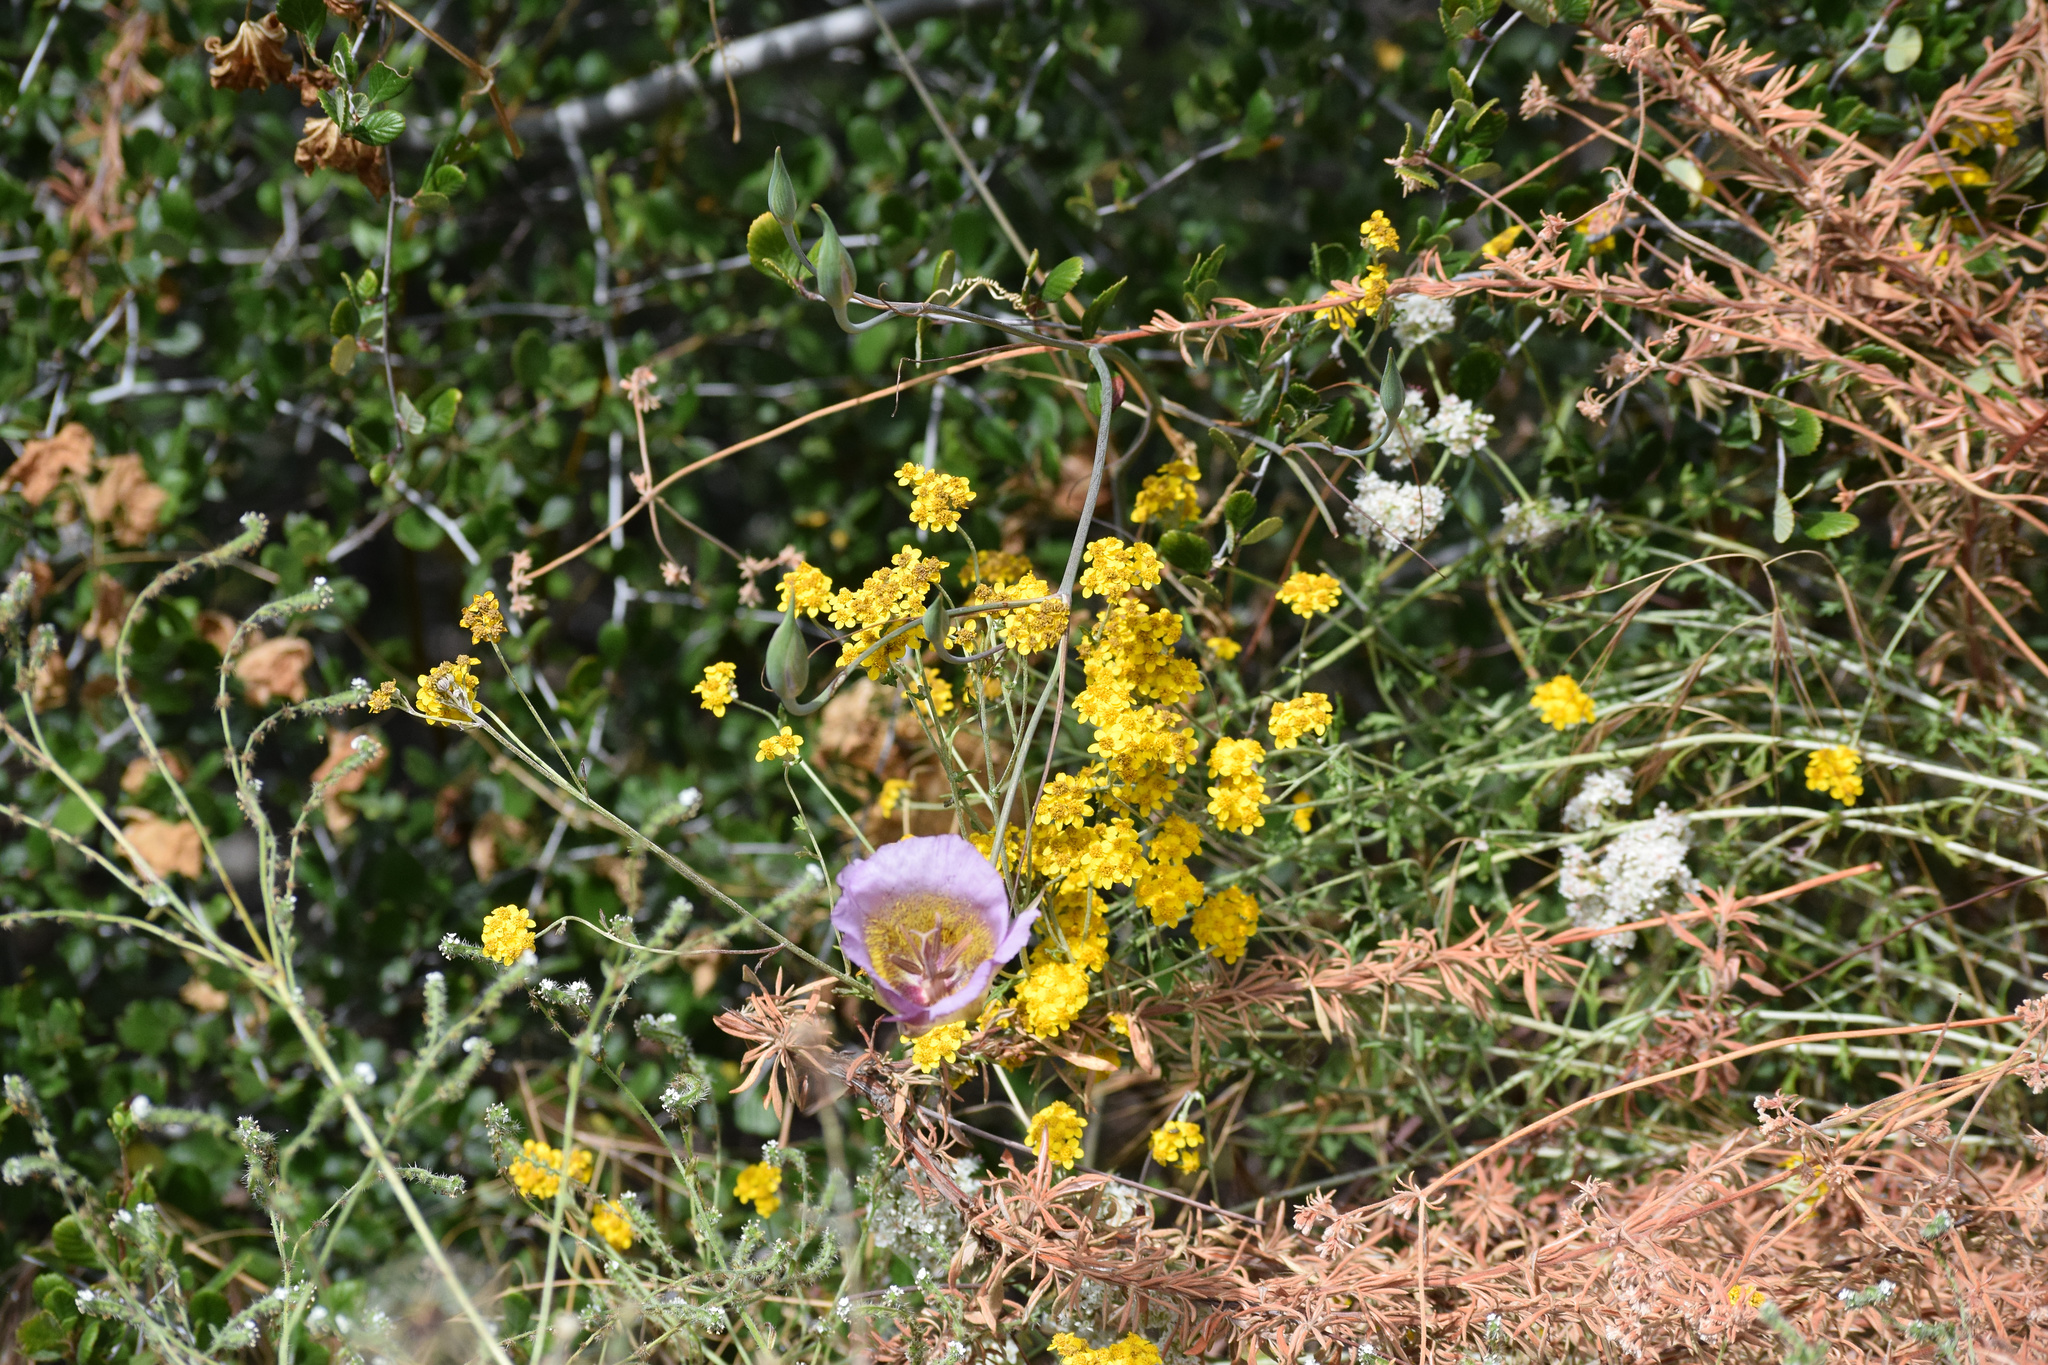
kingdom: Plantae
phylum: Tracheophyta
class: Liliopsida
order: Liliales
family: Liliaceae
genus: Calochortus
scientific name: Calochortus plummerae
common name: Plummer's mariposa-lily
